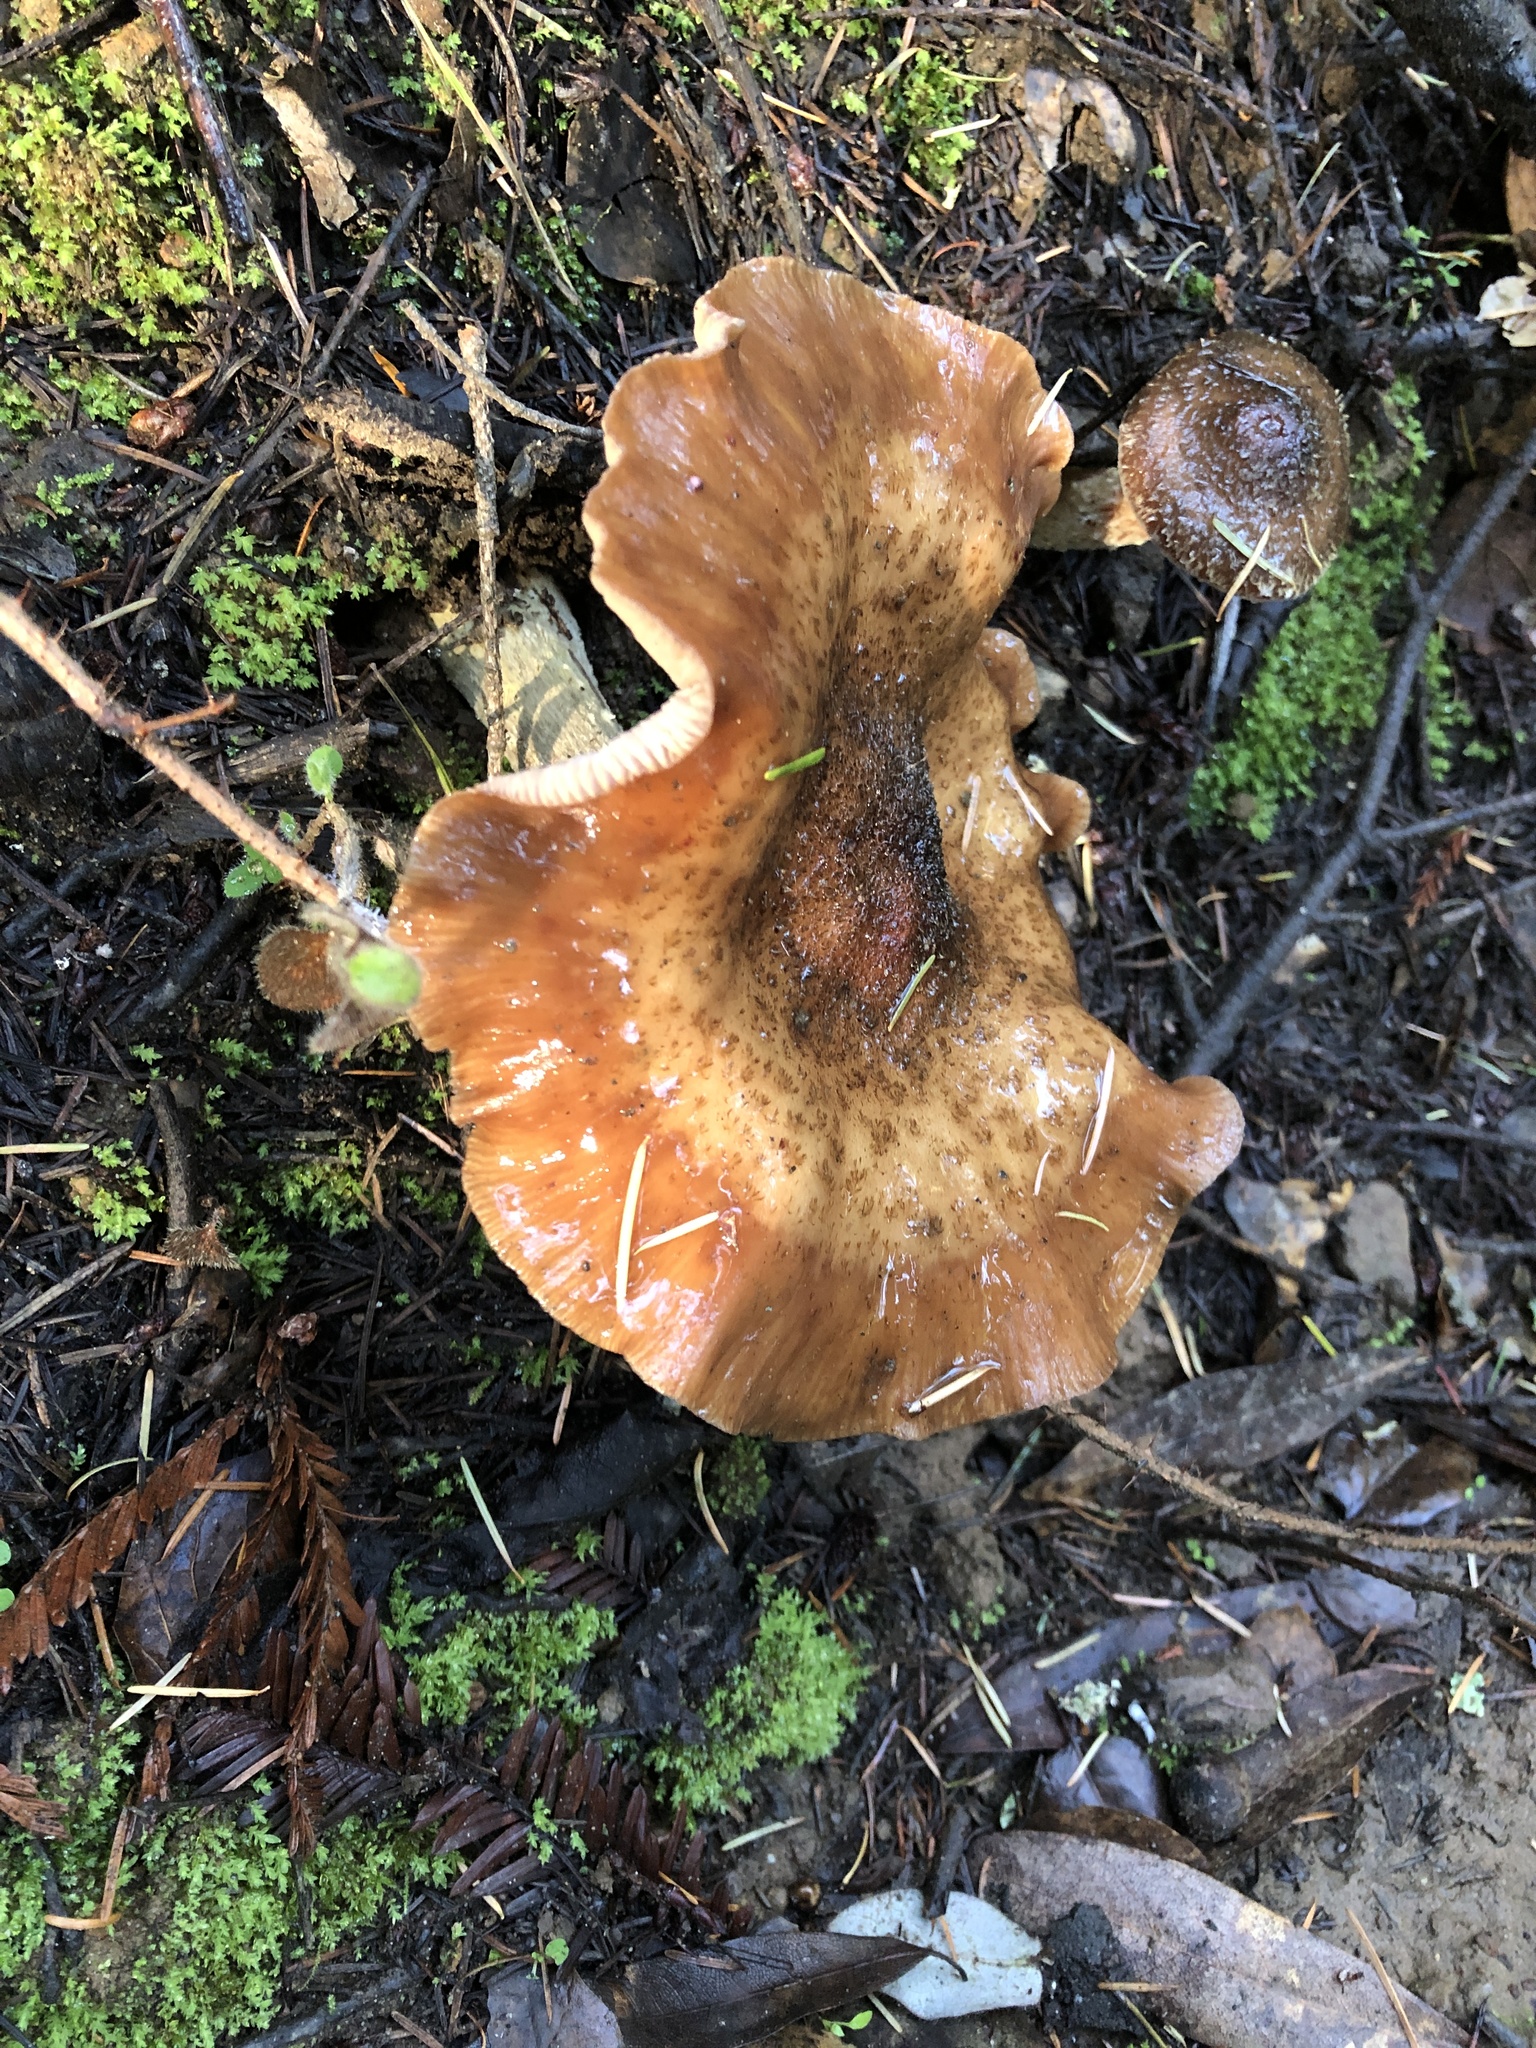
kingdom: Fungi
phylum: Basidiomycota
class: Agaricomycetes
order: Agaricales
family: Physalacriaceae
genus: Armillaria
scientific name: Armillaria mellea
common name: Honey fungus
